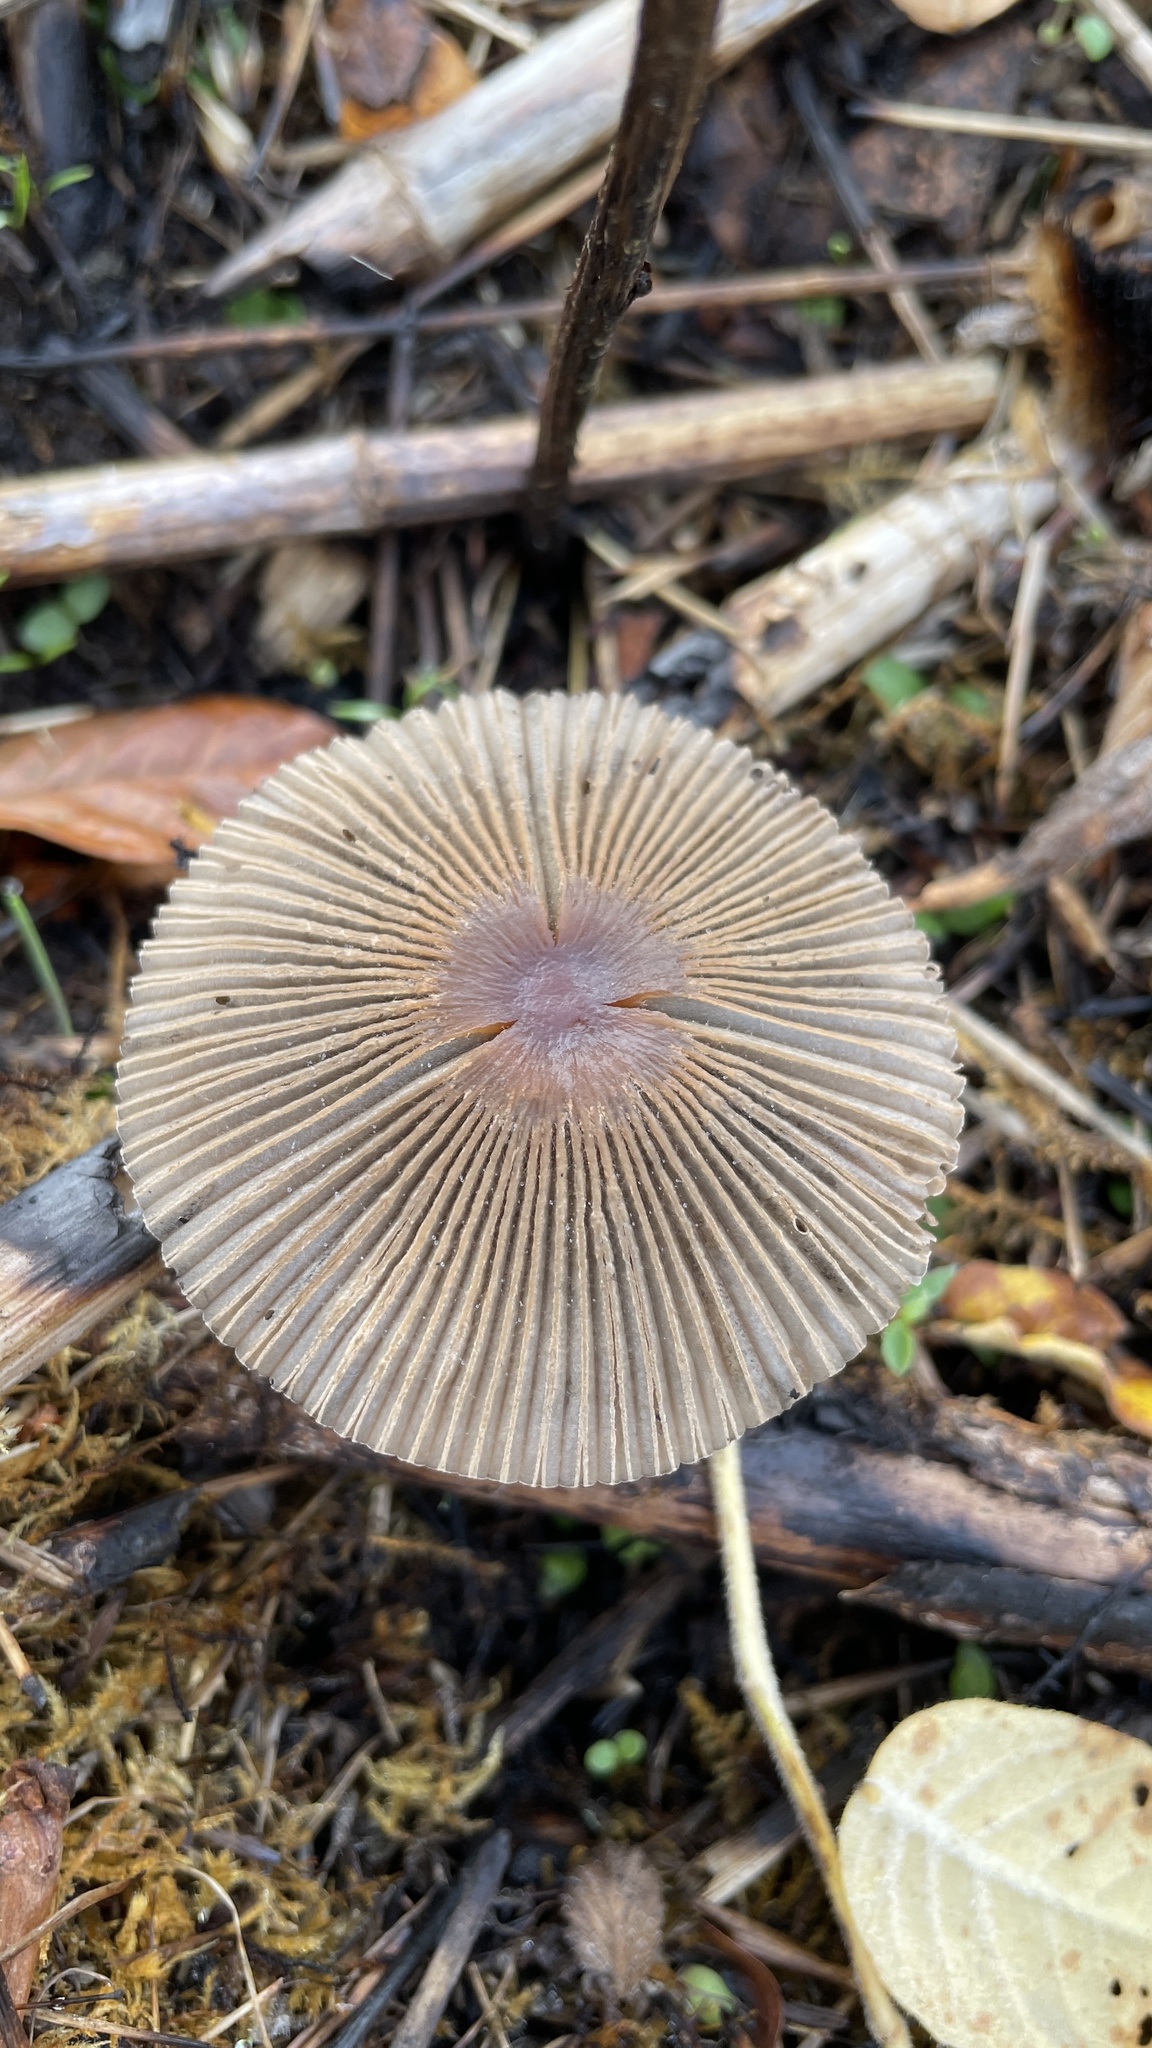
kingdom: Fungi
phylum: Basidiomycota
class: Agaricomycetes
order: Agaricales
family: Psathyrellaceae
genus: Parasola
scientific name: Parasola auricoma
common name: Goldenhaired inkcap
